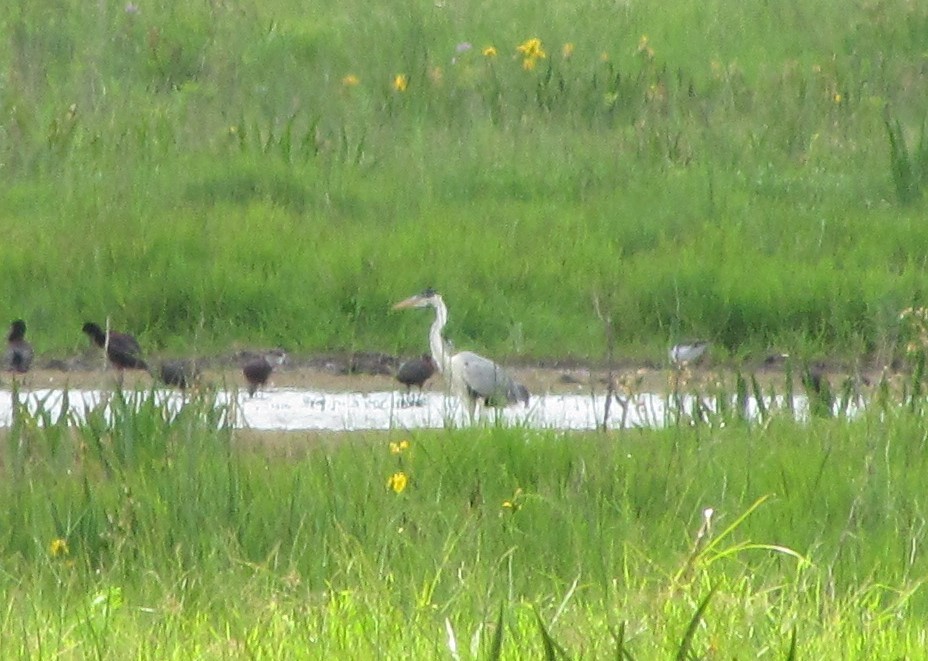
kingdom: Animalia
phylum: Chordata
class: Aves
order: Pelecaniformes
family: Ardeidae
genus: Ardea
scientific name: Ardea cocoi
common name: Cocoi heron
